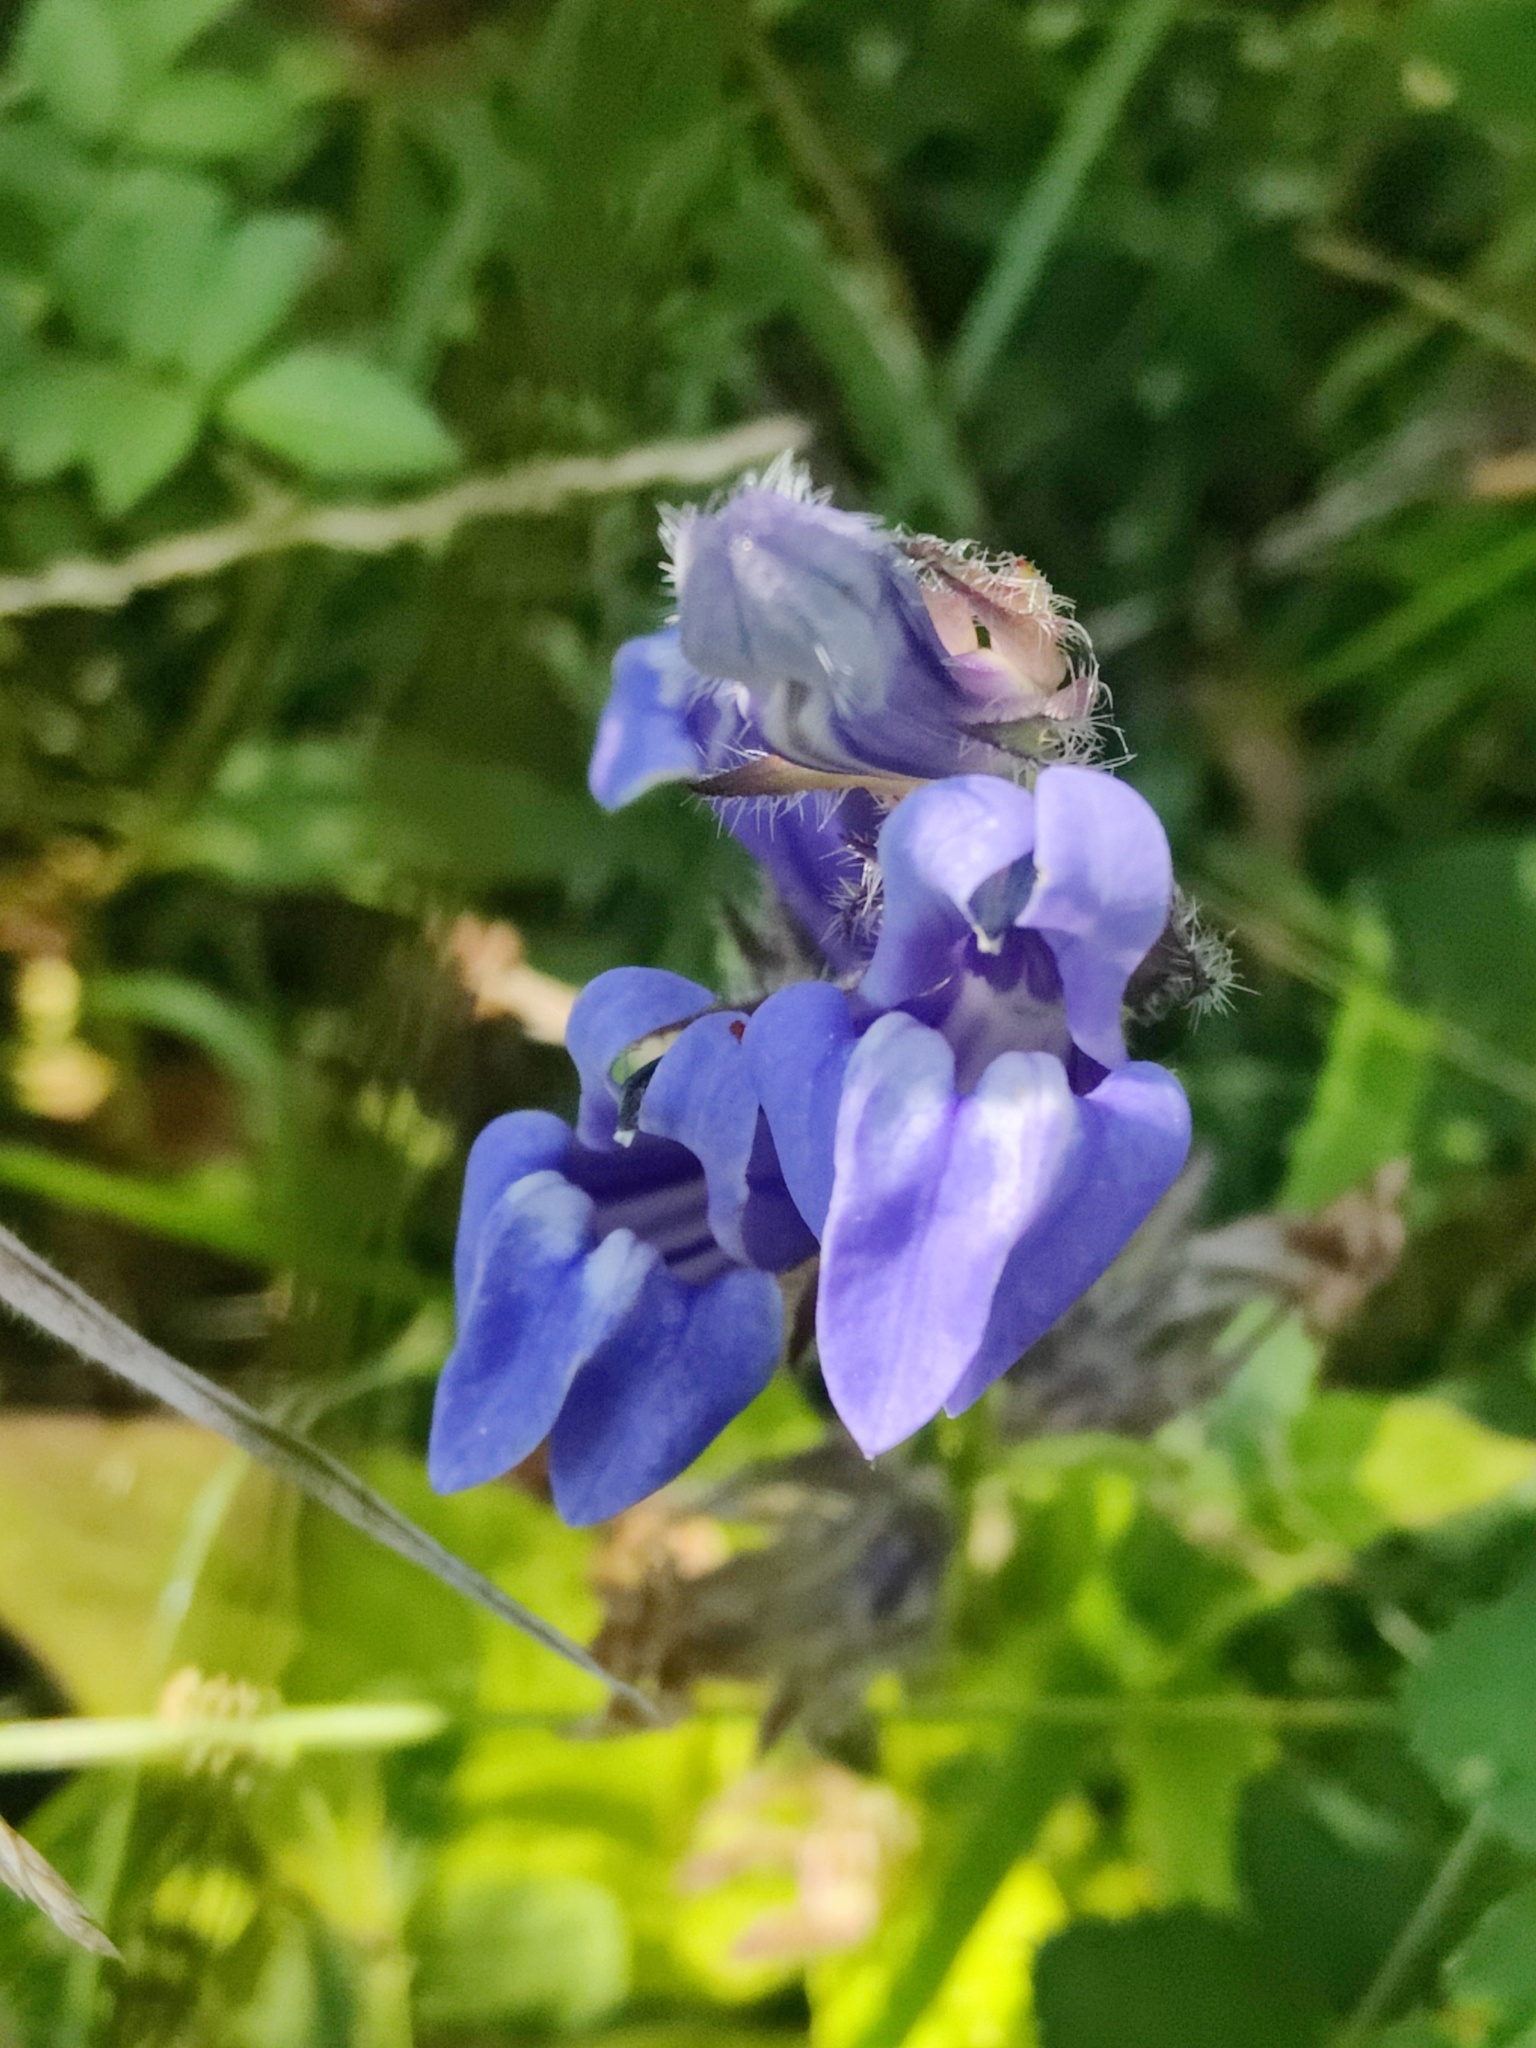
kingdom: Plantae
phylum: Tracheophyta
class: Magnoliopsida
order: Asterales
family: Campanulaceae
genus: Lobelia
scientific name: Lobelia siphilitica
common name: Great lobelia
